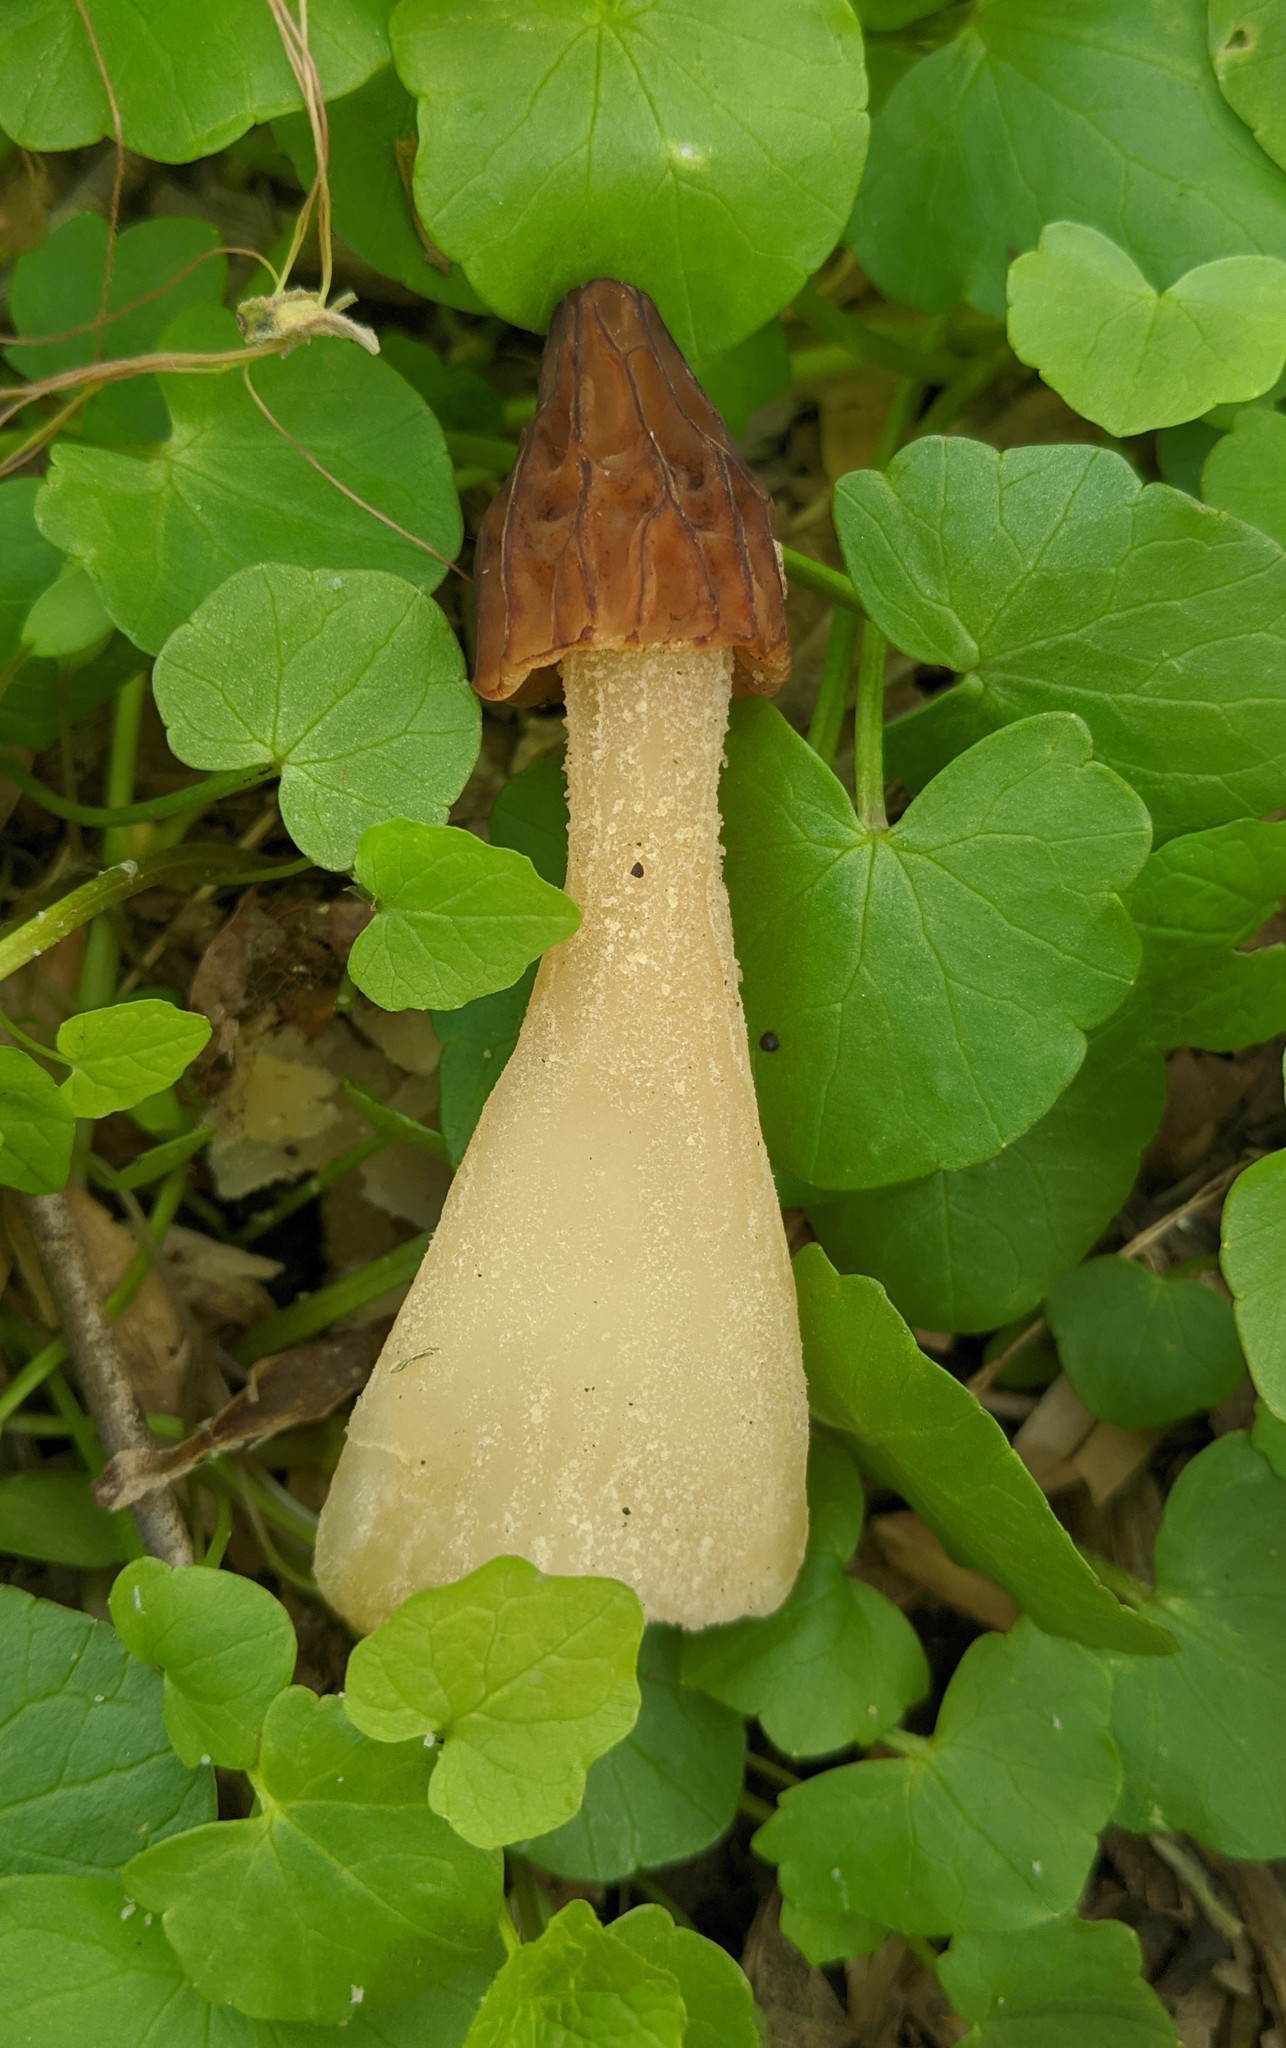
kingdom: Fungi
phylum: Ascomycota
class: Pezizomycetes
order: Pezizales
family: Morchellaceae
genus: Morchella
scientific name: Morchella punctipes
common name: Half-free morel
